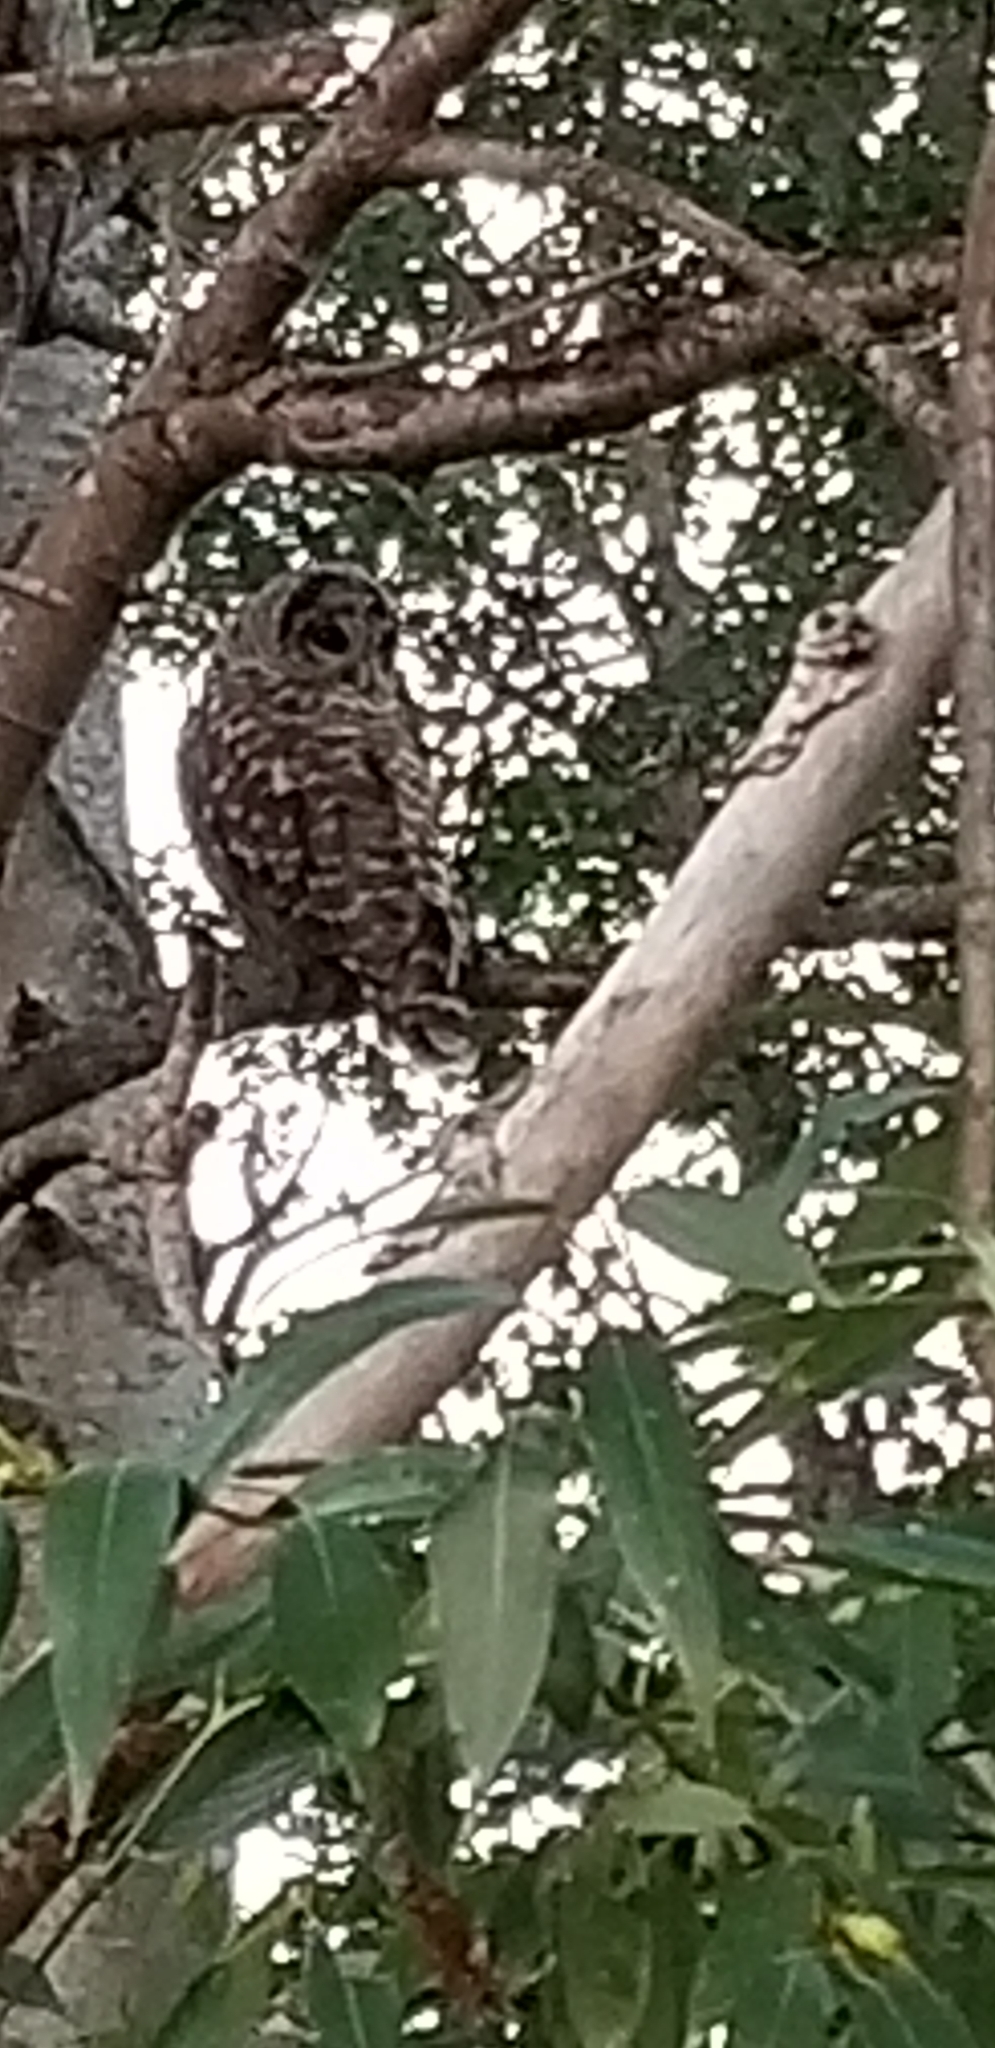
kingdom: Animalia
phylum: Chordata
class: Aves
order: Strigiformes
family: Strigidae
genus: Strix
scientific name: Strix varia
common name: Barred owl
